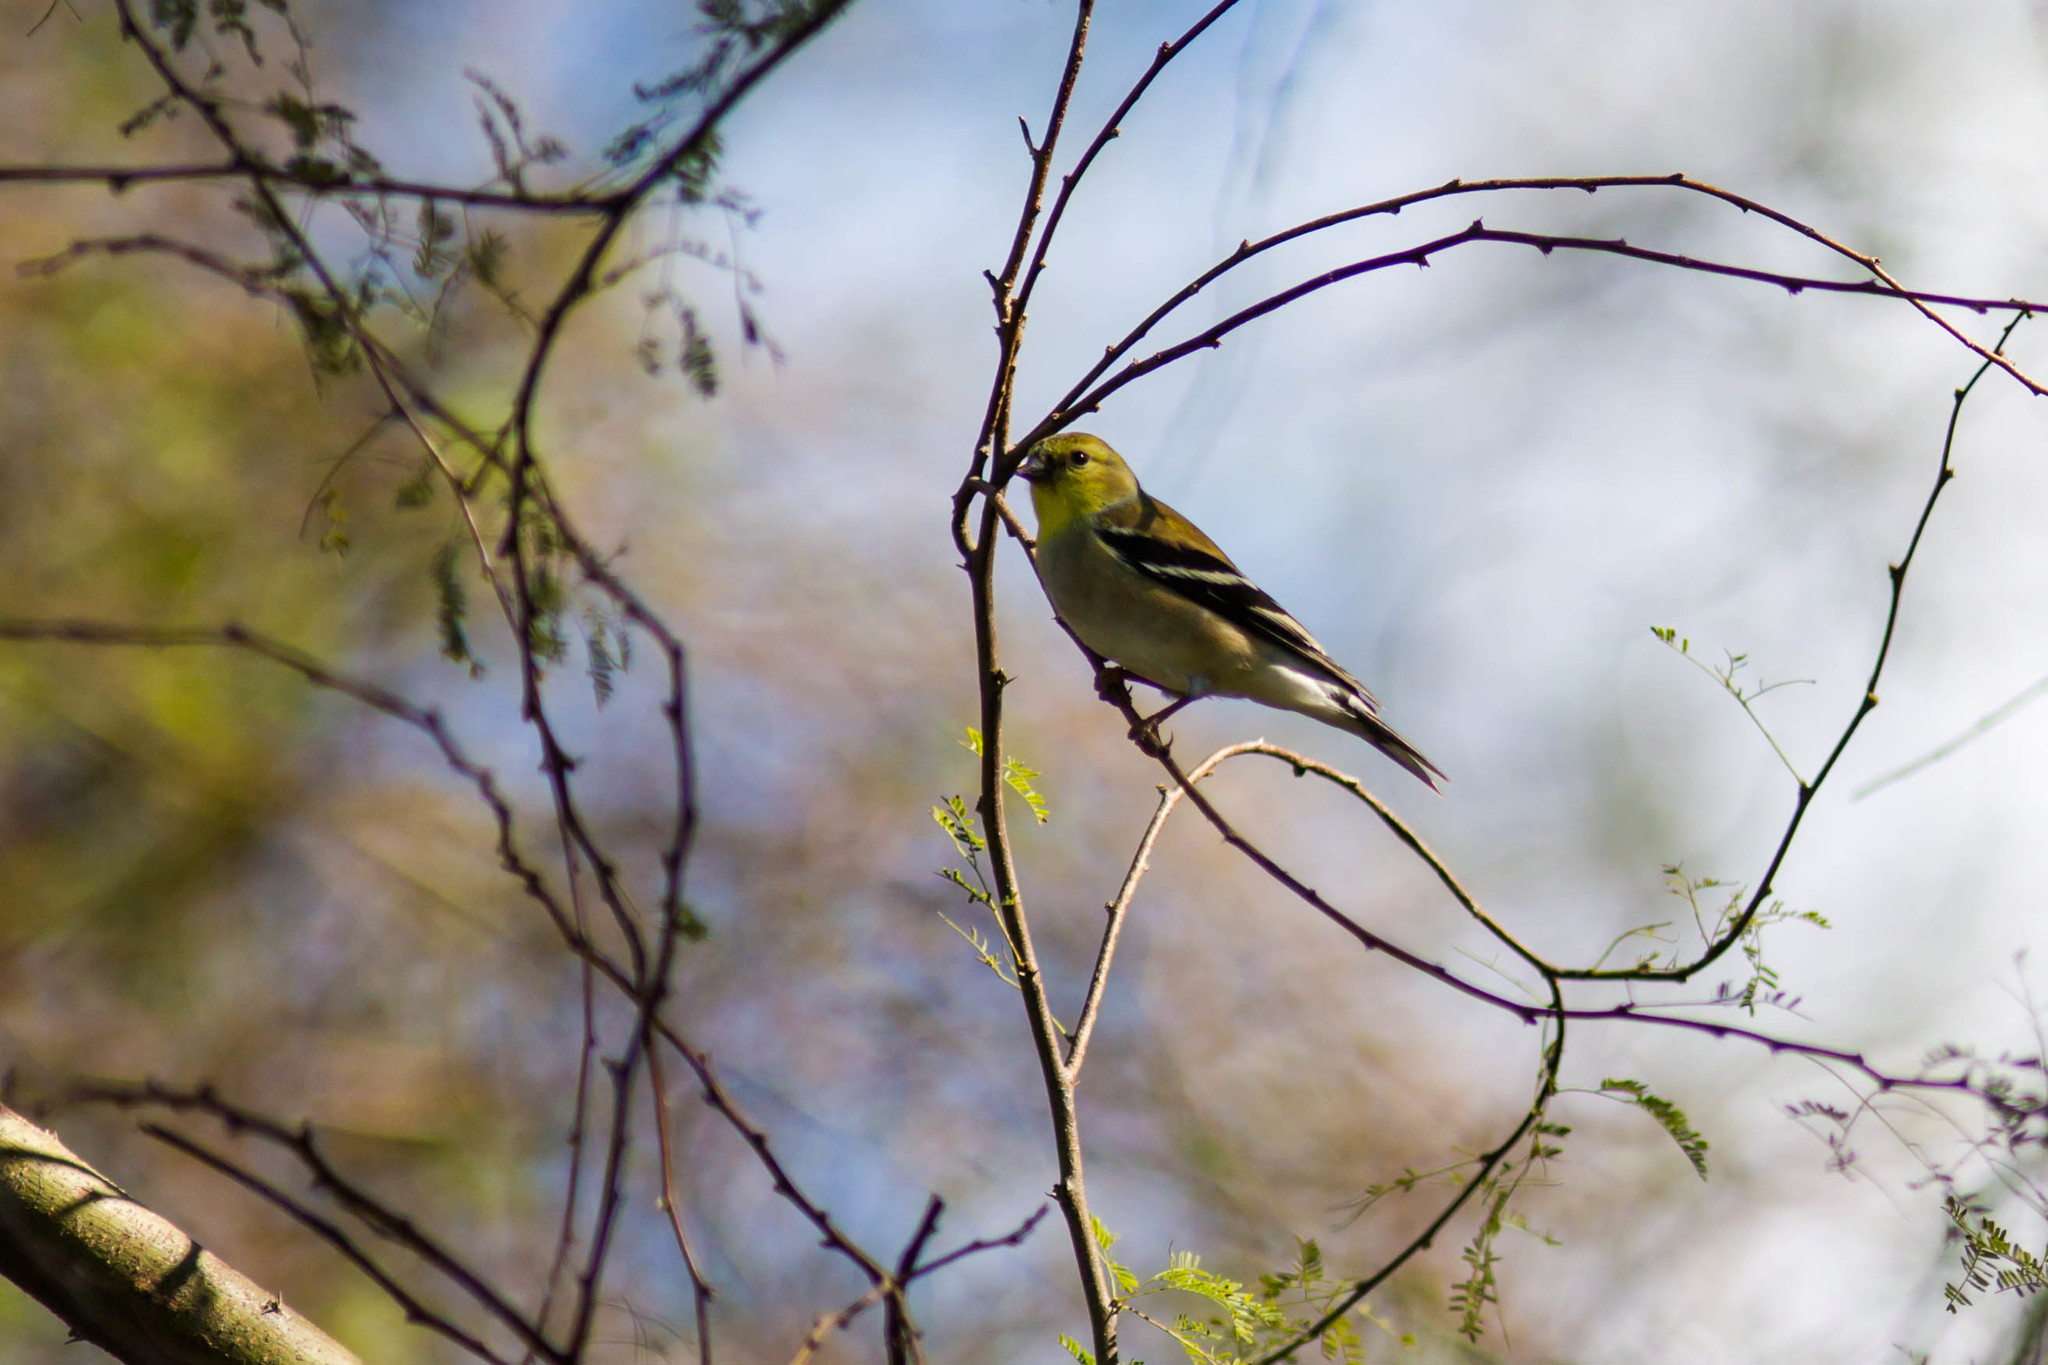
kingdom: Animalia
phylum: Chordata
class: Aves
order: Passeriformes
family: Fringillidae
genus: Spinus
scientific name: Spinus tristis
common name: American goldfinch
